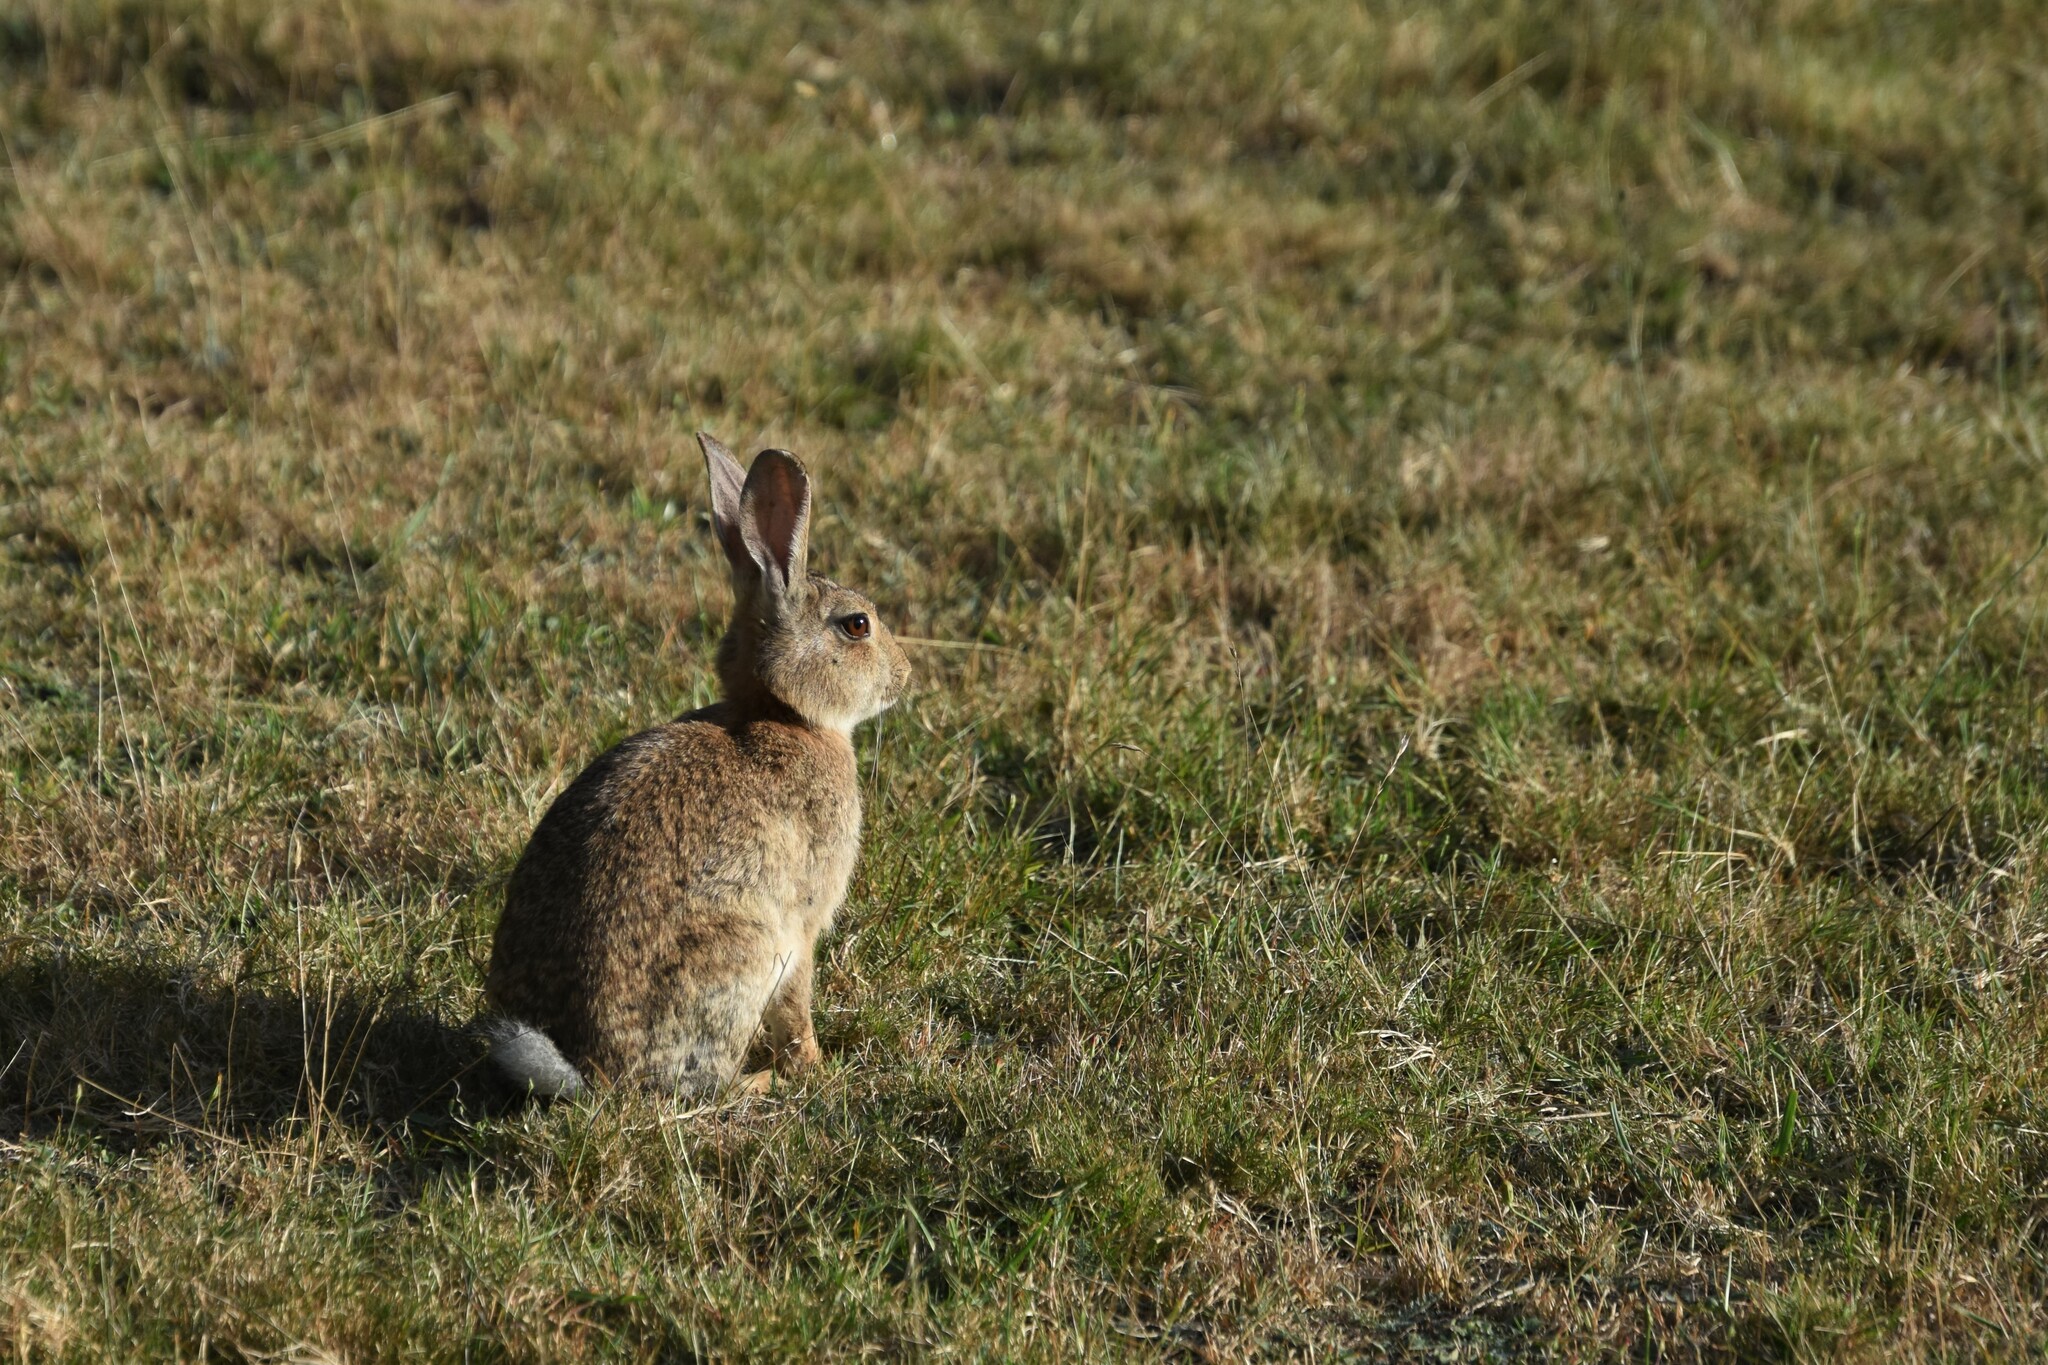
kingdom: Animalia
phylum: Chordata
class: Mammalia
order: Lagomorpha
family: Leporidae
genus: Oryctolagus
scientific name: Oryctolagus cuniculus
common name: European rabbit
